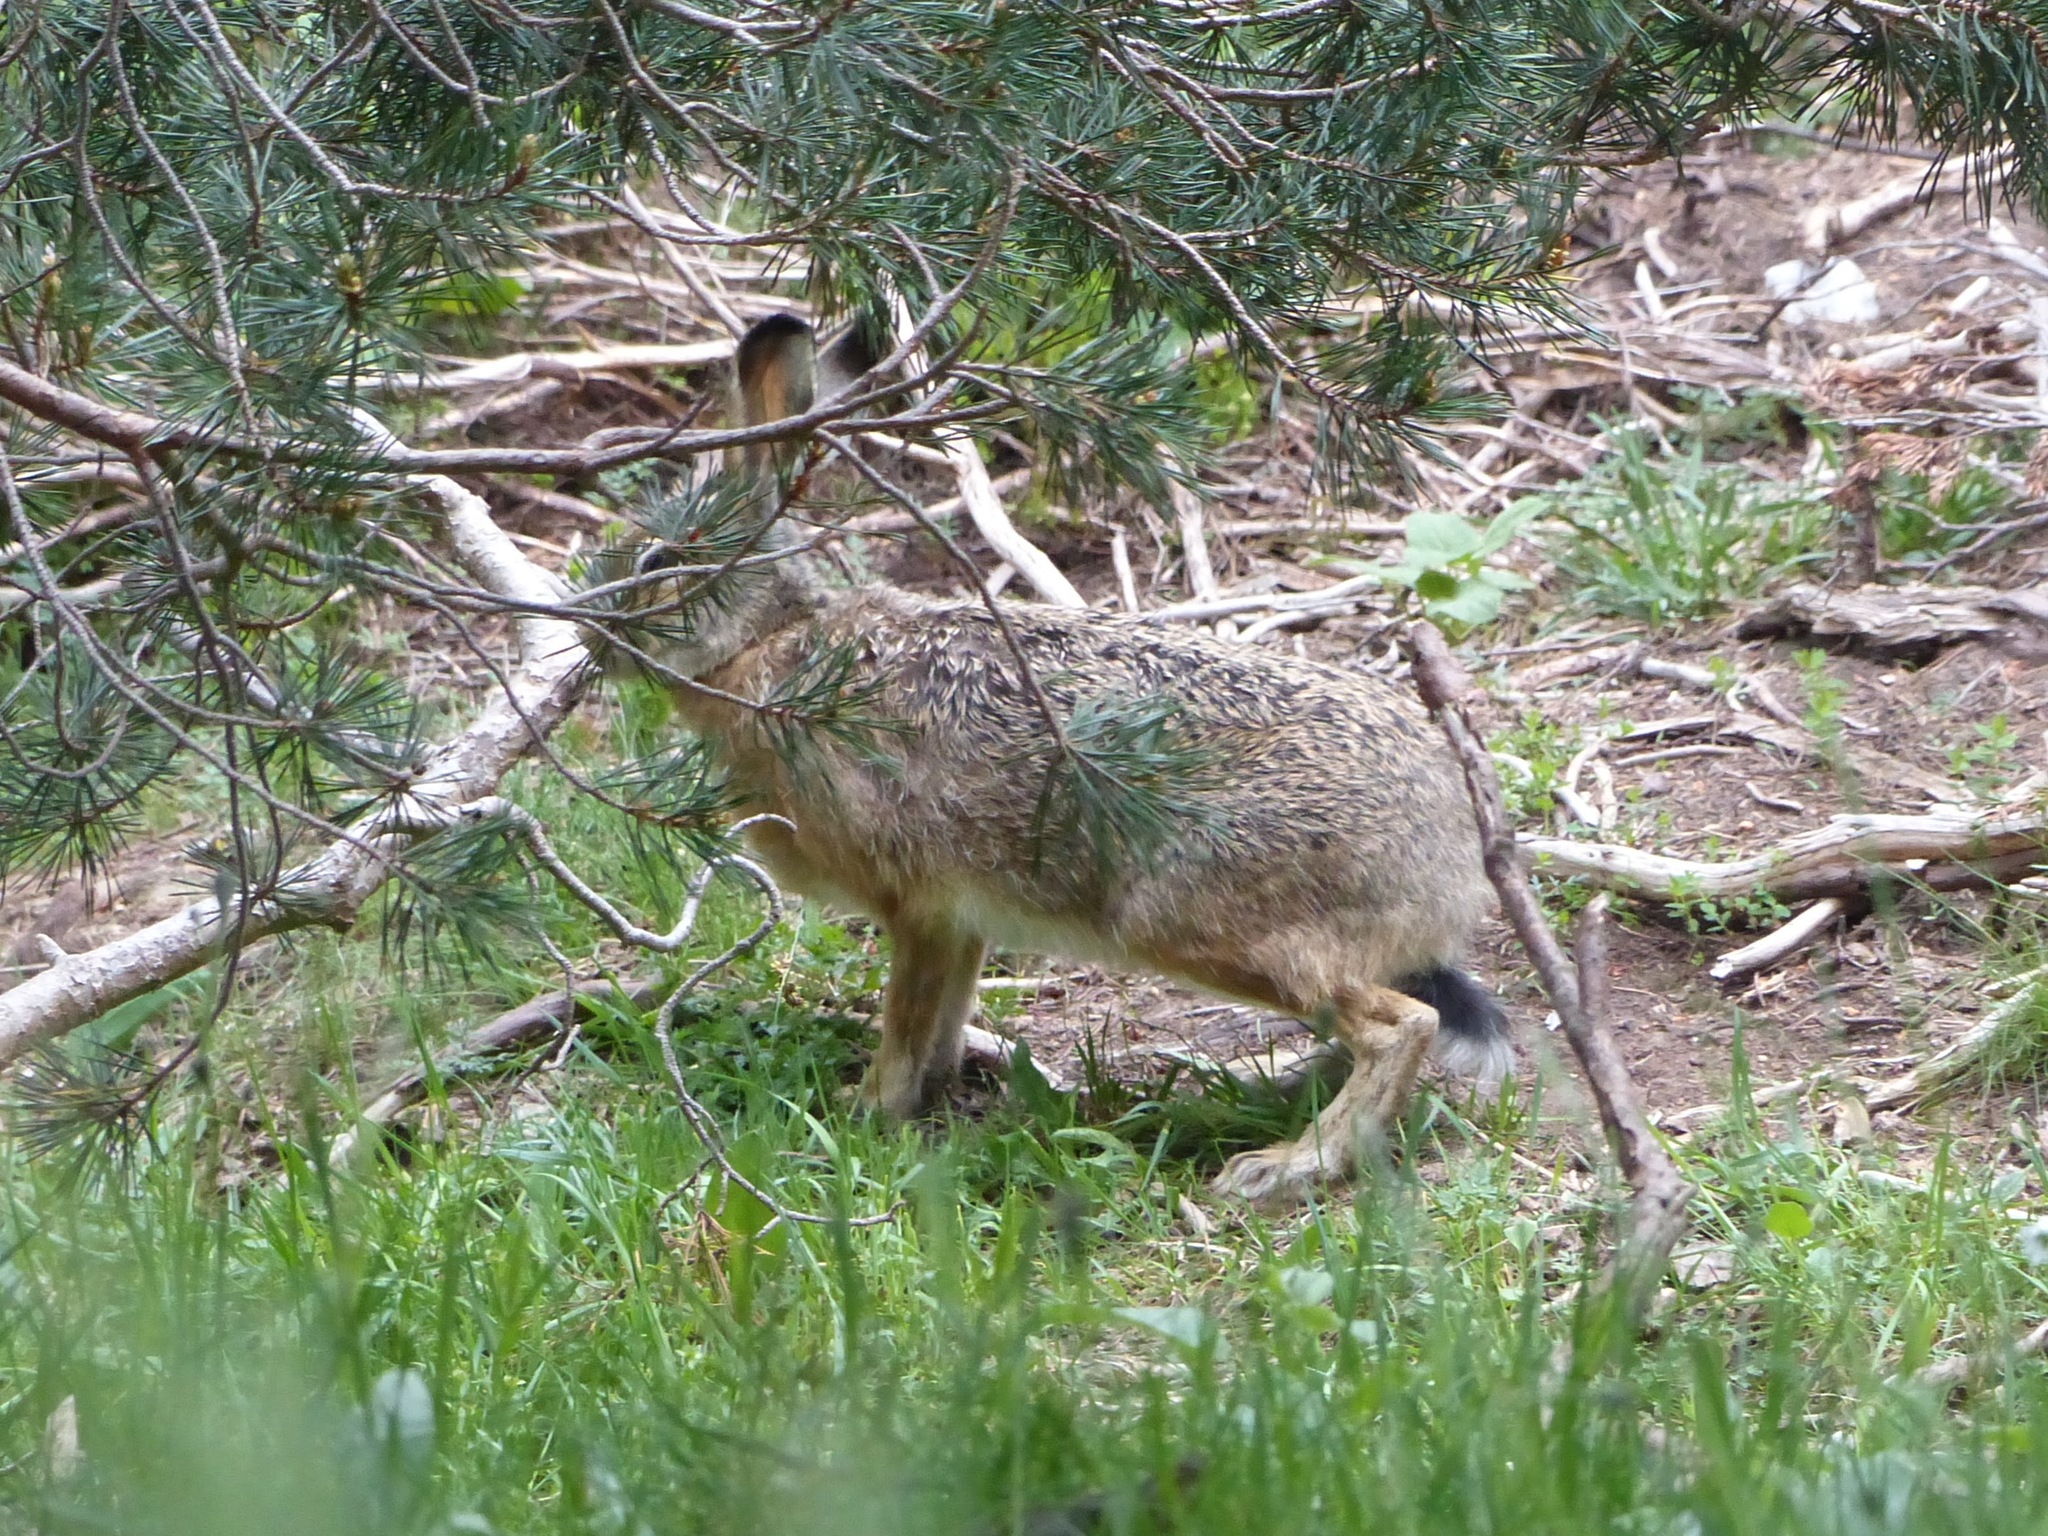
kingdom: Animalia
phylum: Chordata
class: Mammalia
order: Lagomorpha
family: Leporidae
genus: Lepus
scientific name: Lepus castroviejoi
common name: Broom hare
